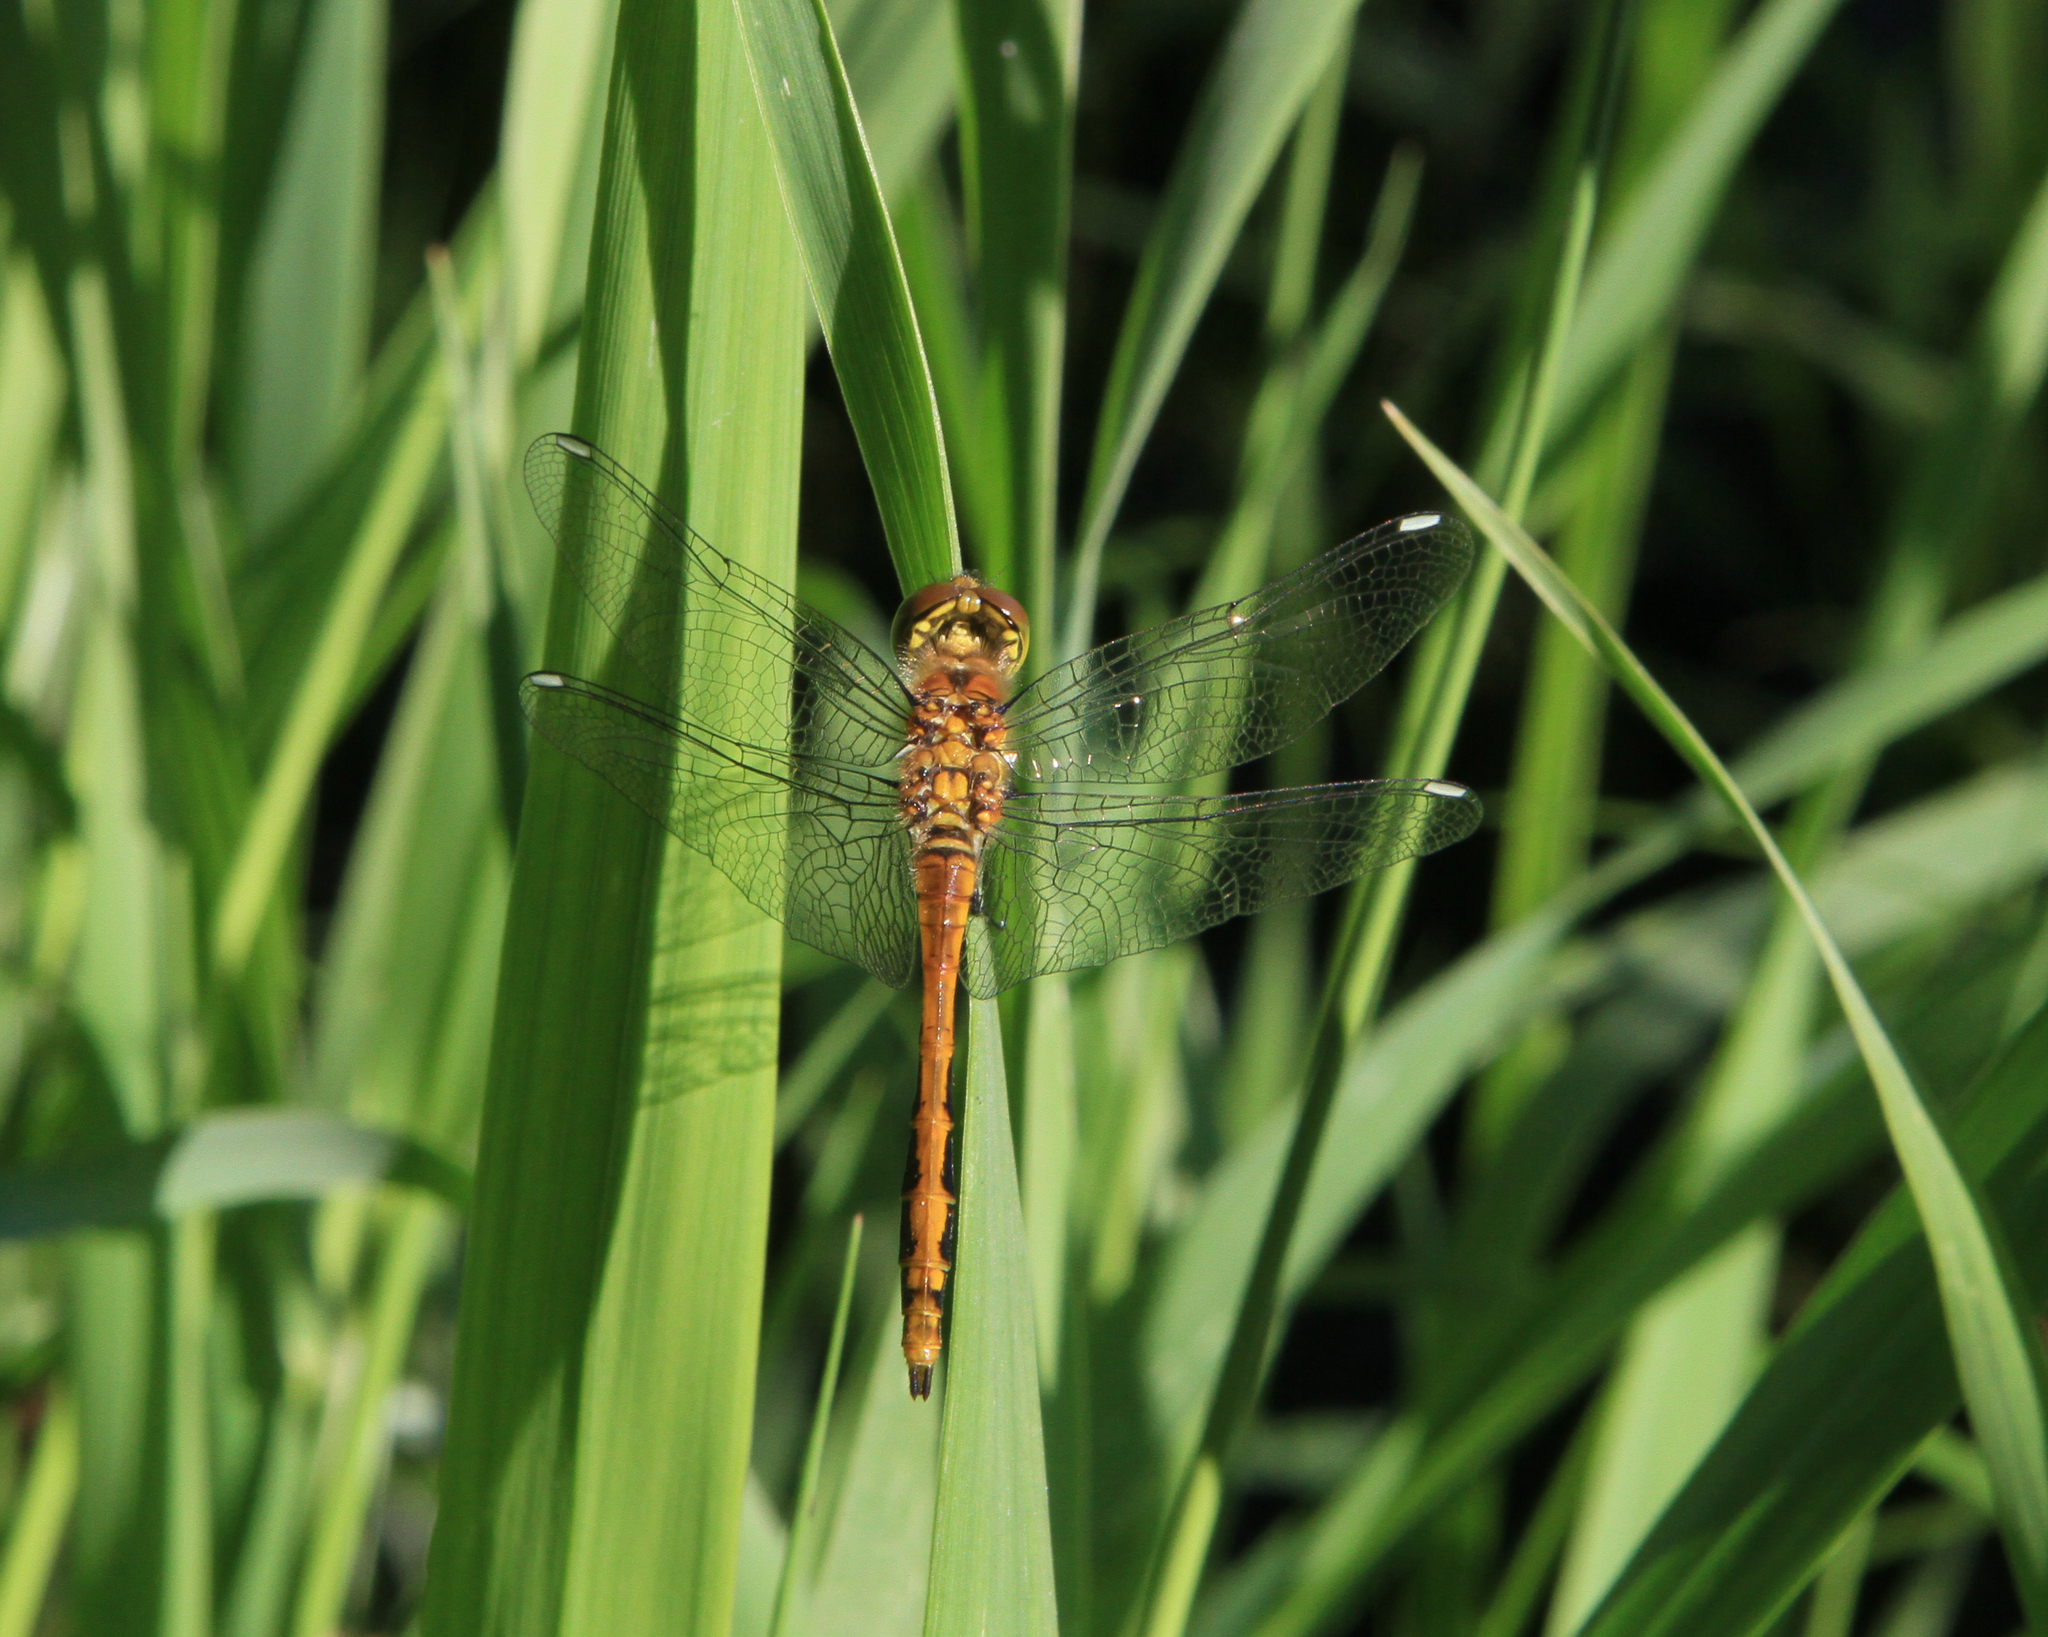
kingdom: Animalia
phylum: Arthropoda
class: Insecta
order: Odonata
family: Libellulidae
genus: Sympetrum
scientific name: Sympetrum danae
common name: Black darter
